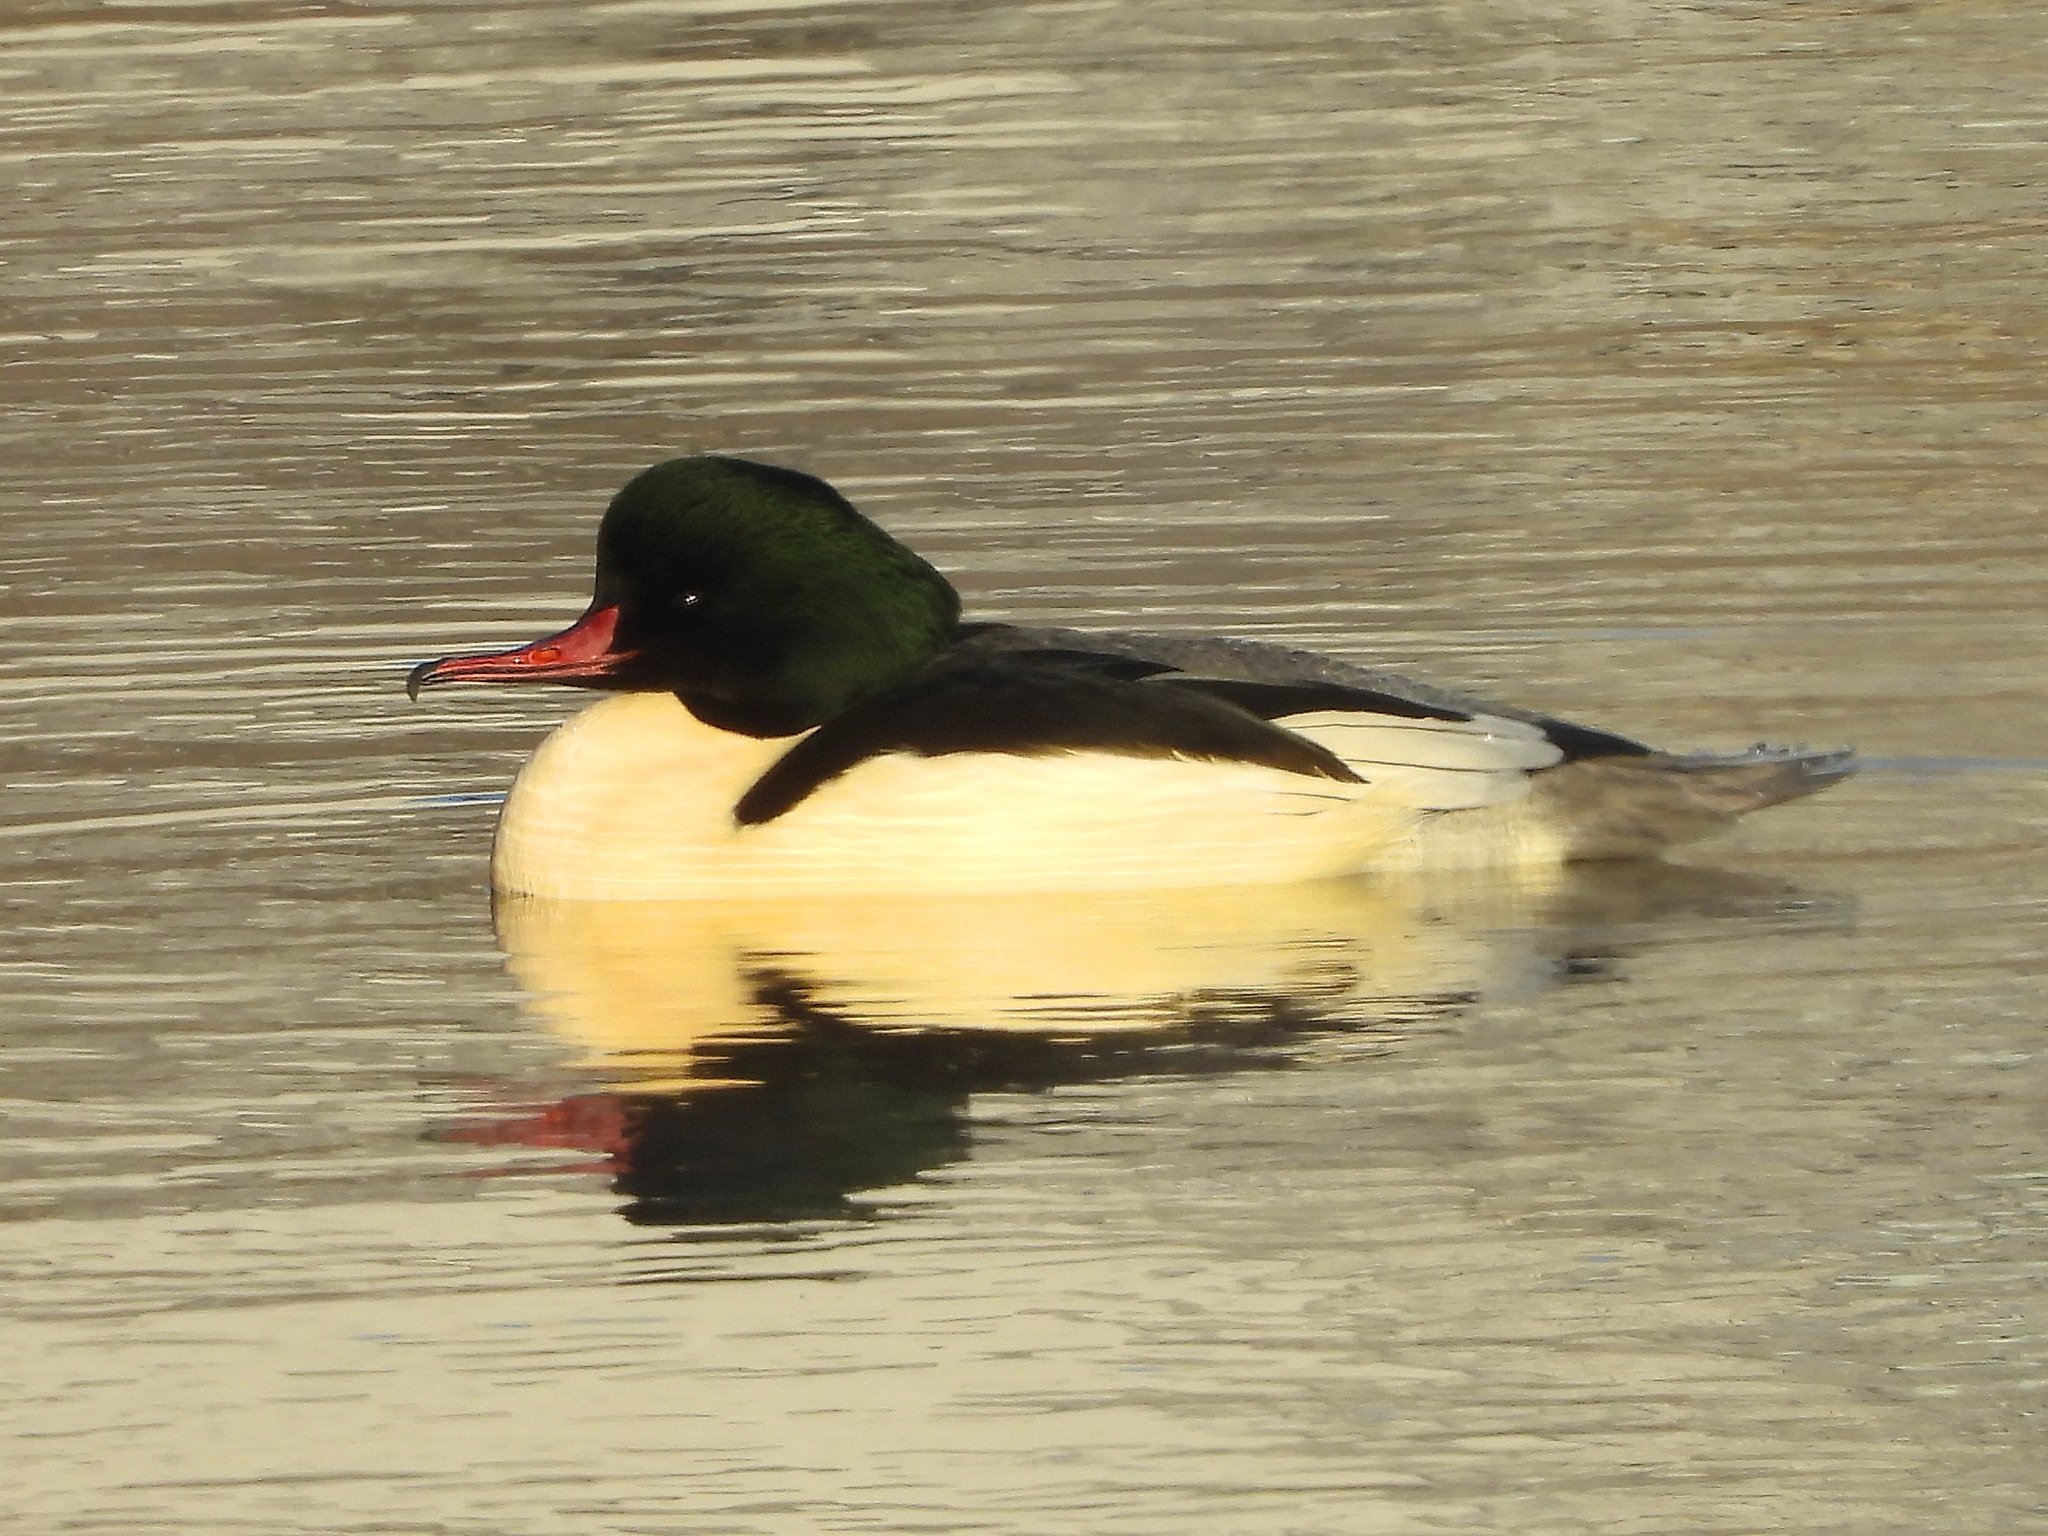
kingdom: Animalia
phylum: Chordata
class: Aves
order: Anseriformes
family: Anatidae
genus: Mergus
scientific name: Mergus merganser
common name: Common merganser
